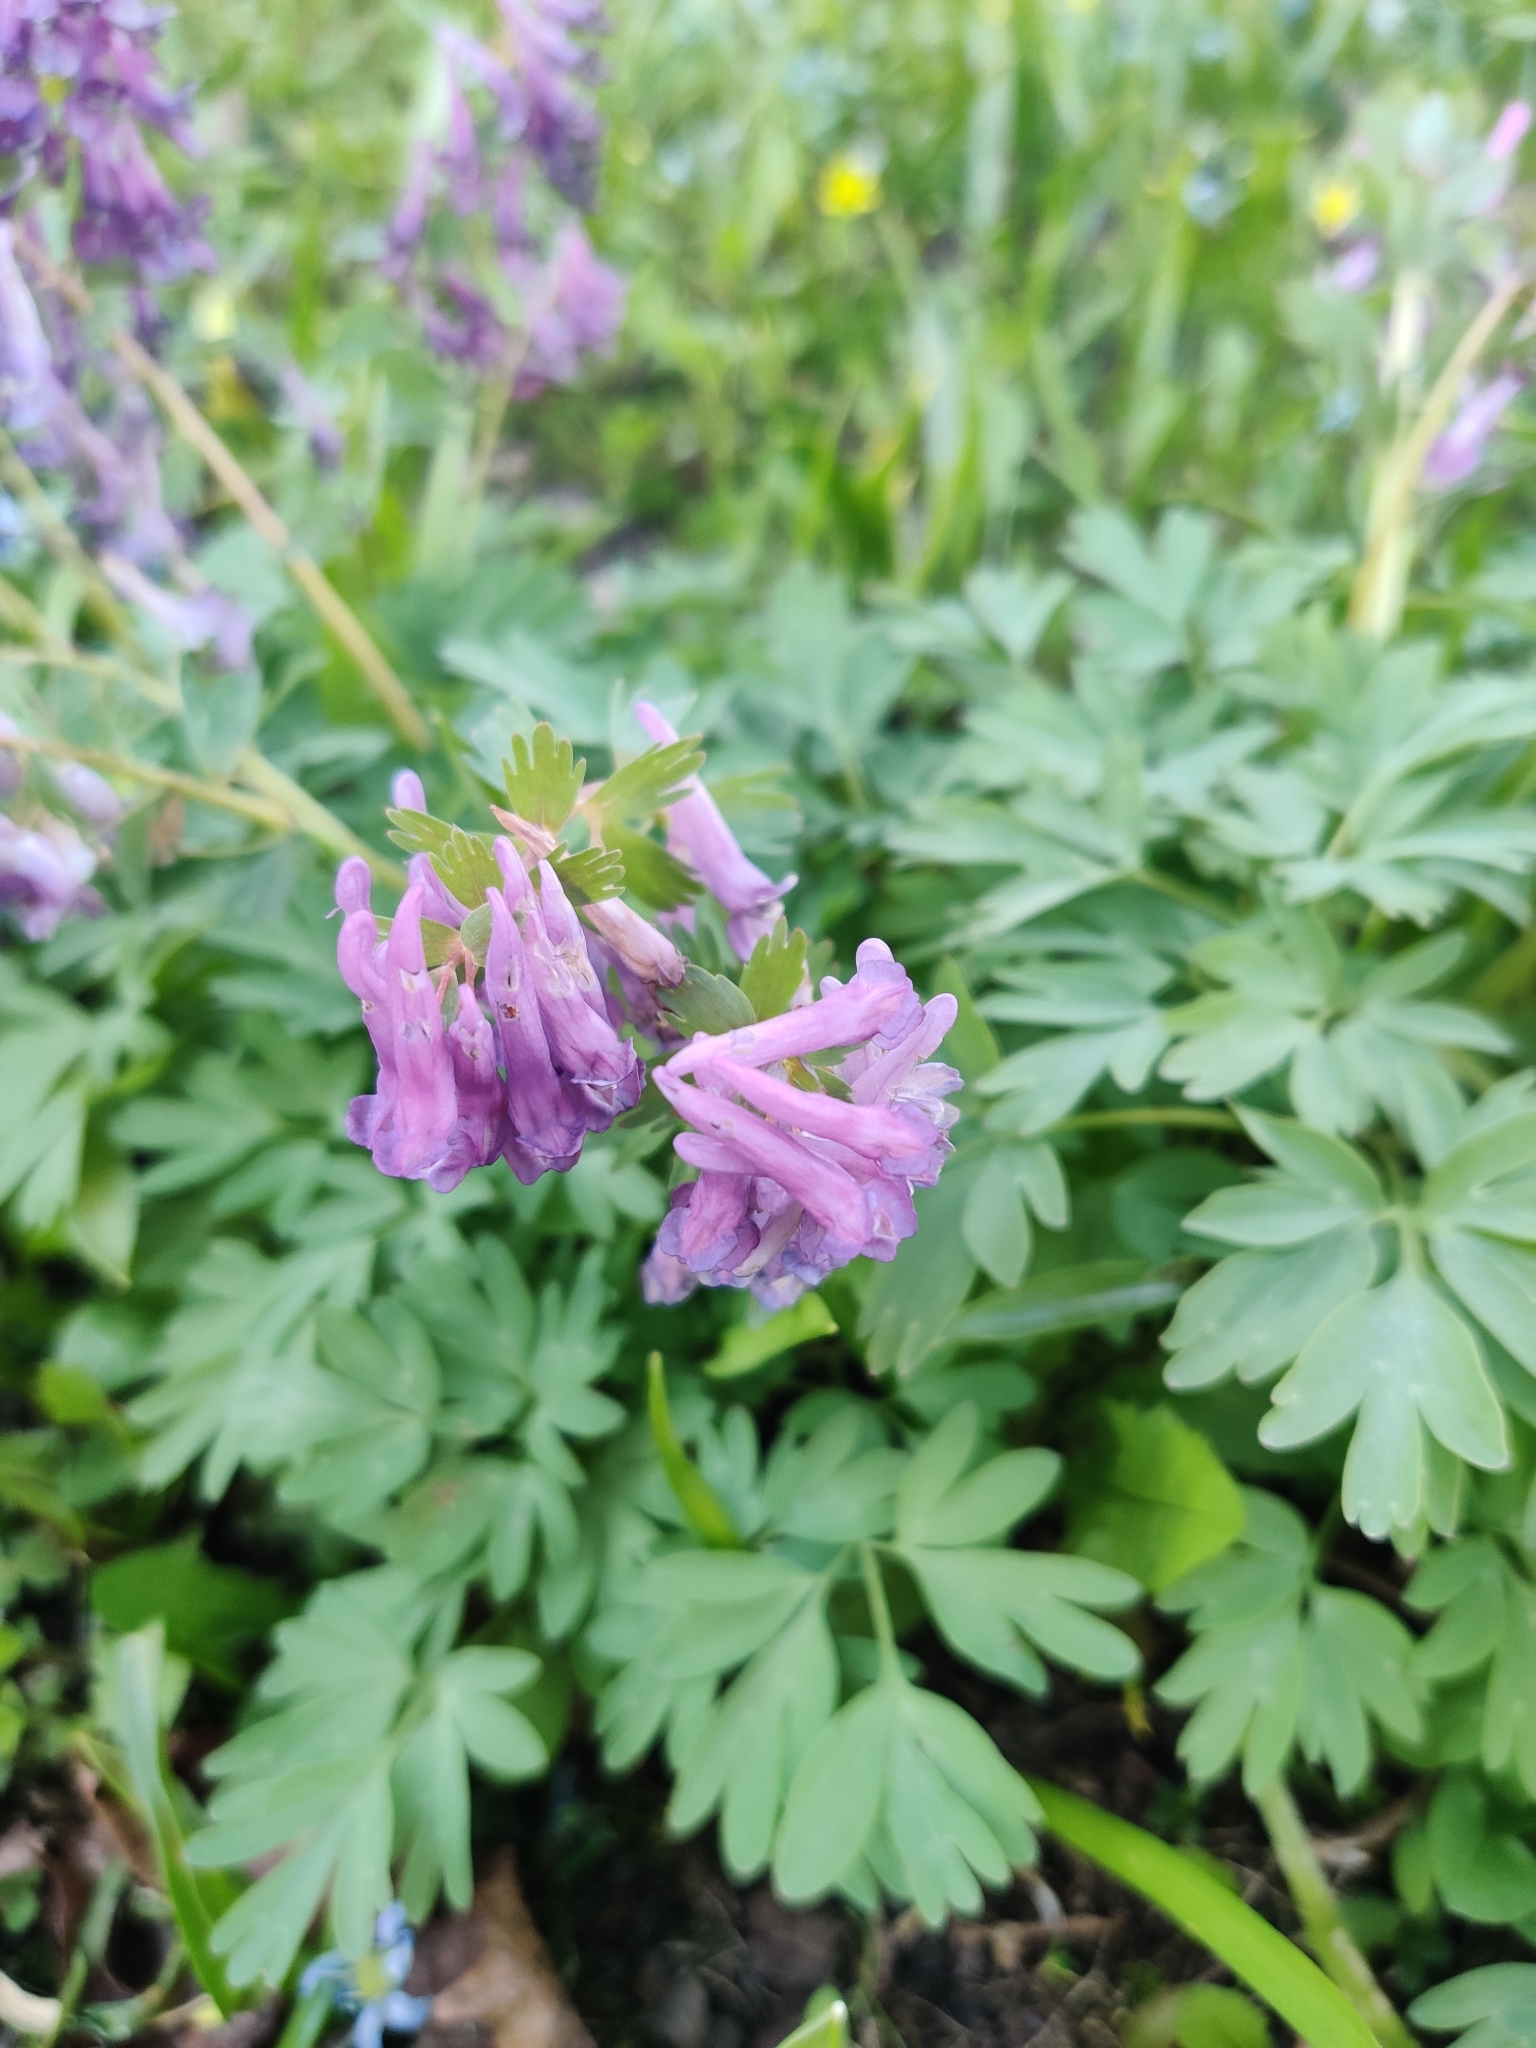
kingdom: Plantae
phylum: Tracheophyta
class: Magnoliopsida
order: Ranunculales
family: Papaveraceae
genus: Corydalis
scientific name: Corydalis solida
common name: Bird-in-a-bush
